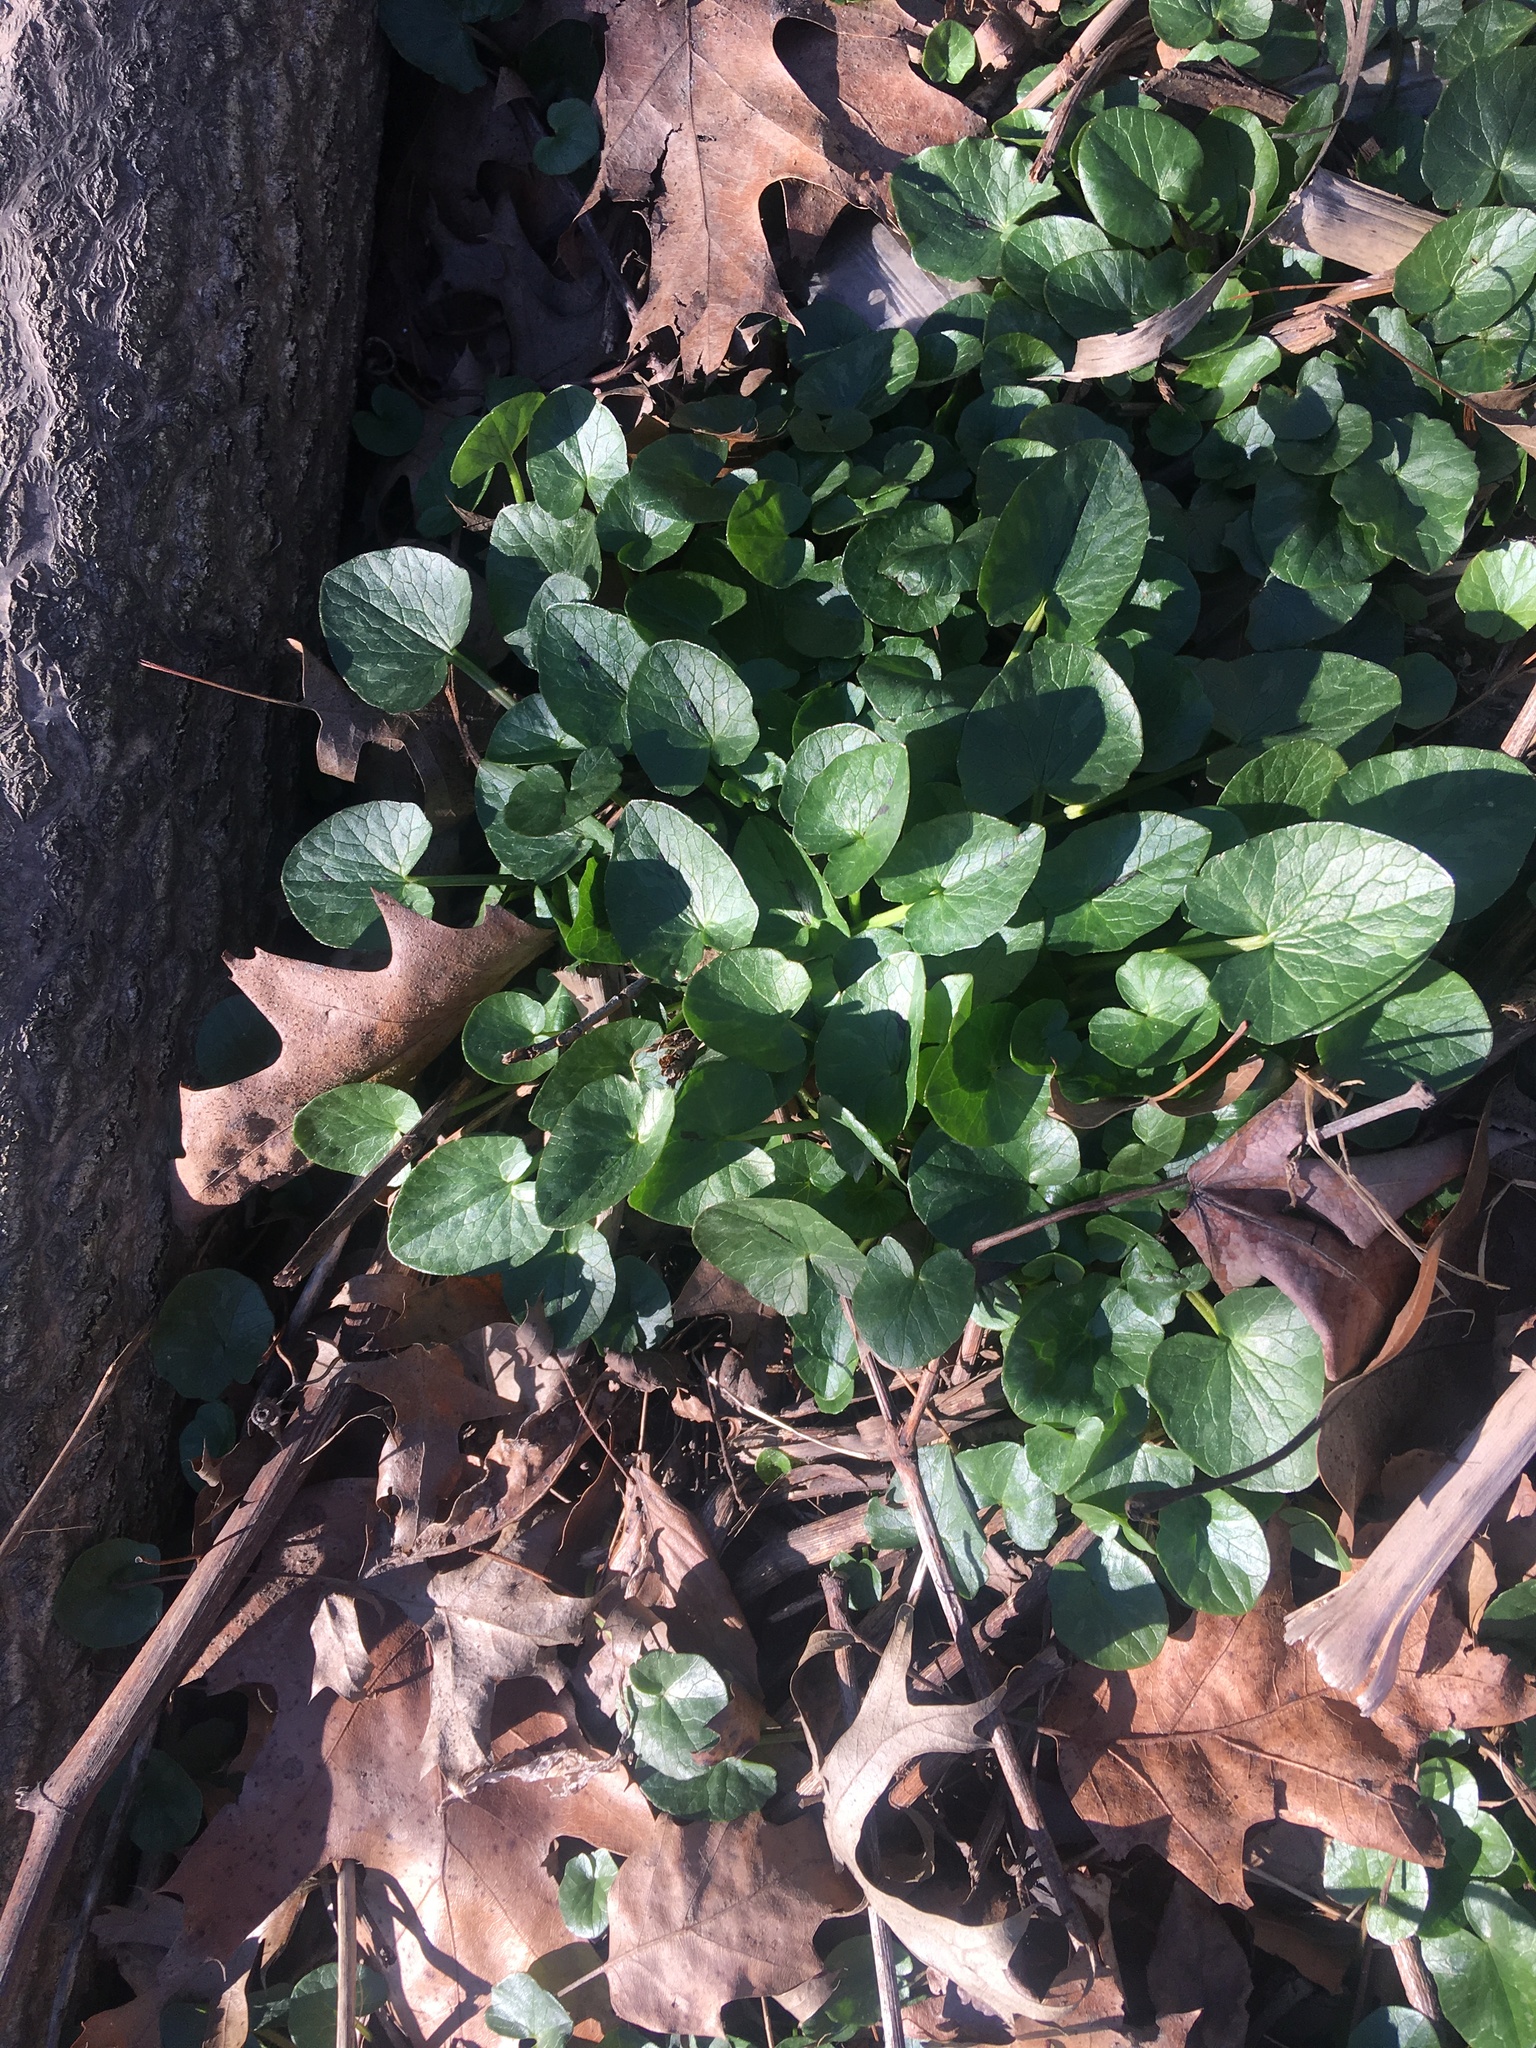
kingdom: Plantae
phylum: Tracheophyta
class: Magnoliopsida
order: Ranunculales
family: Ranunculaceae
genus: Ficaria
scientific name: Ficaria verna
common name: Lesser celandine
